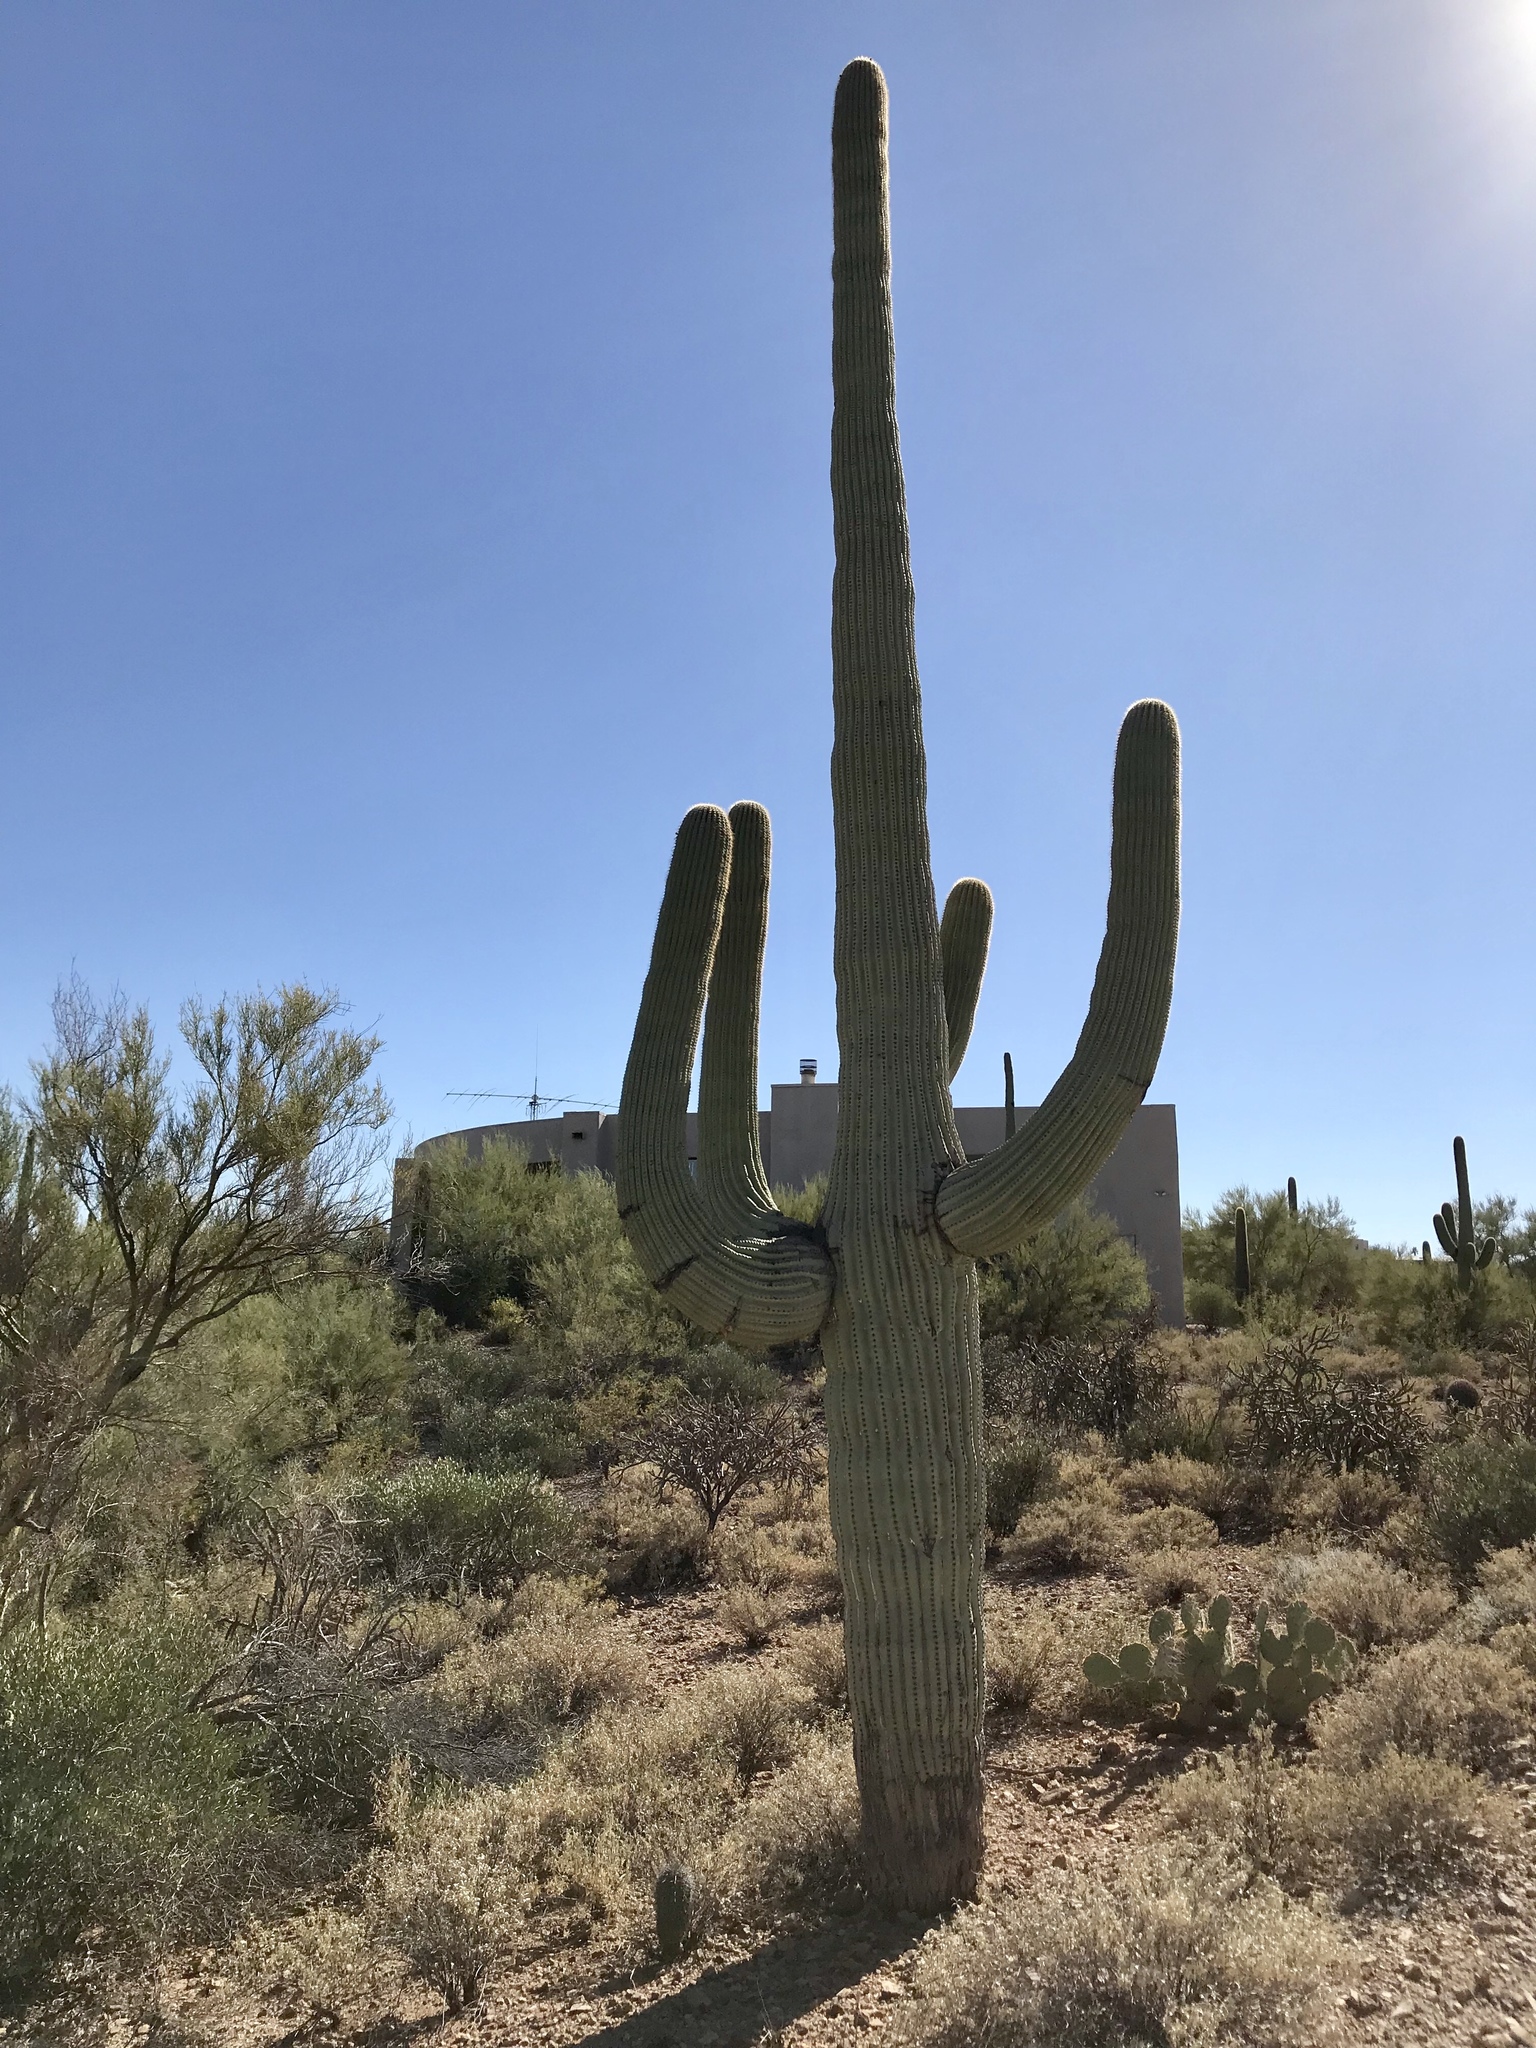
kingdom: Plantae
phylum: Tracheophyta
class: Magnoliopsida
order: Caryophyllales
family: Cactaceae
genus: Carnegiea
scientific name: Carnegiea gigantea
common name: Saguaro
